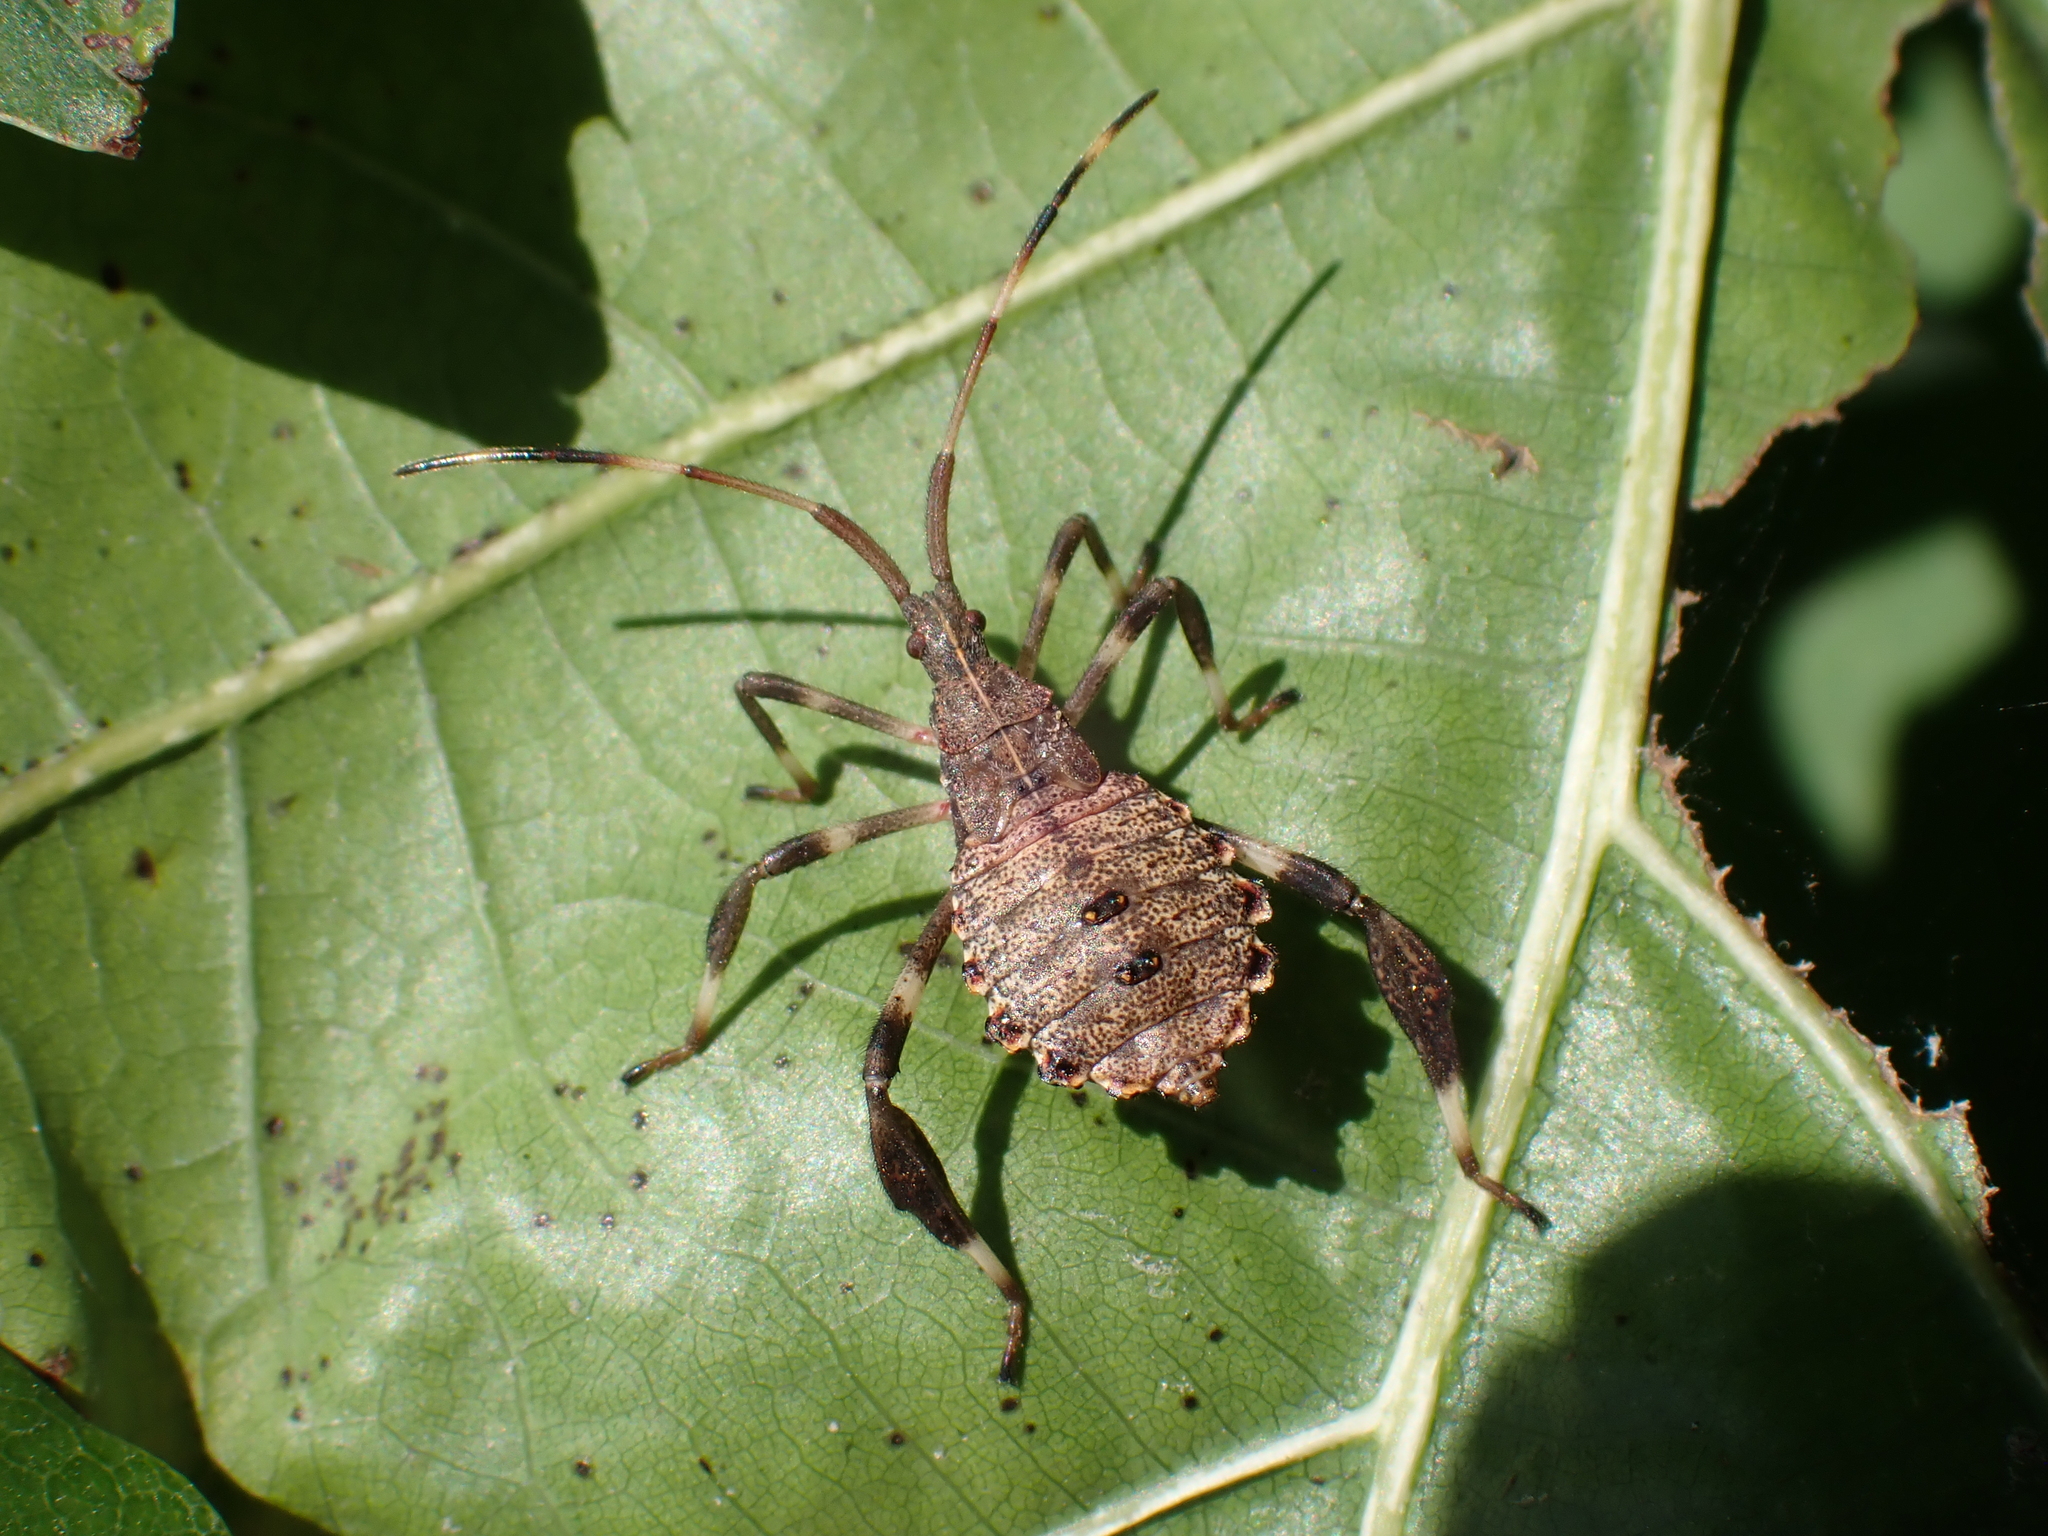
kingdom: Animalia
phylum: Arthropoda
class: Insecta
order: Hemiptera
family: Coreidae
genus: Acanthocephala
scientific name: Acanthocephala terminalis
